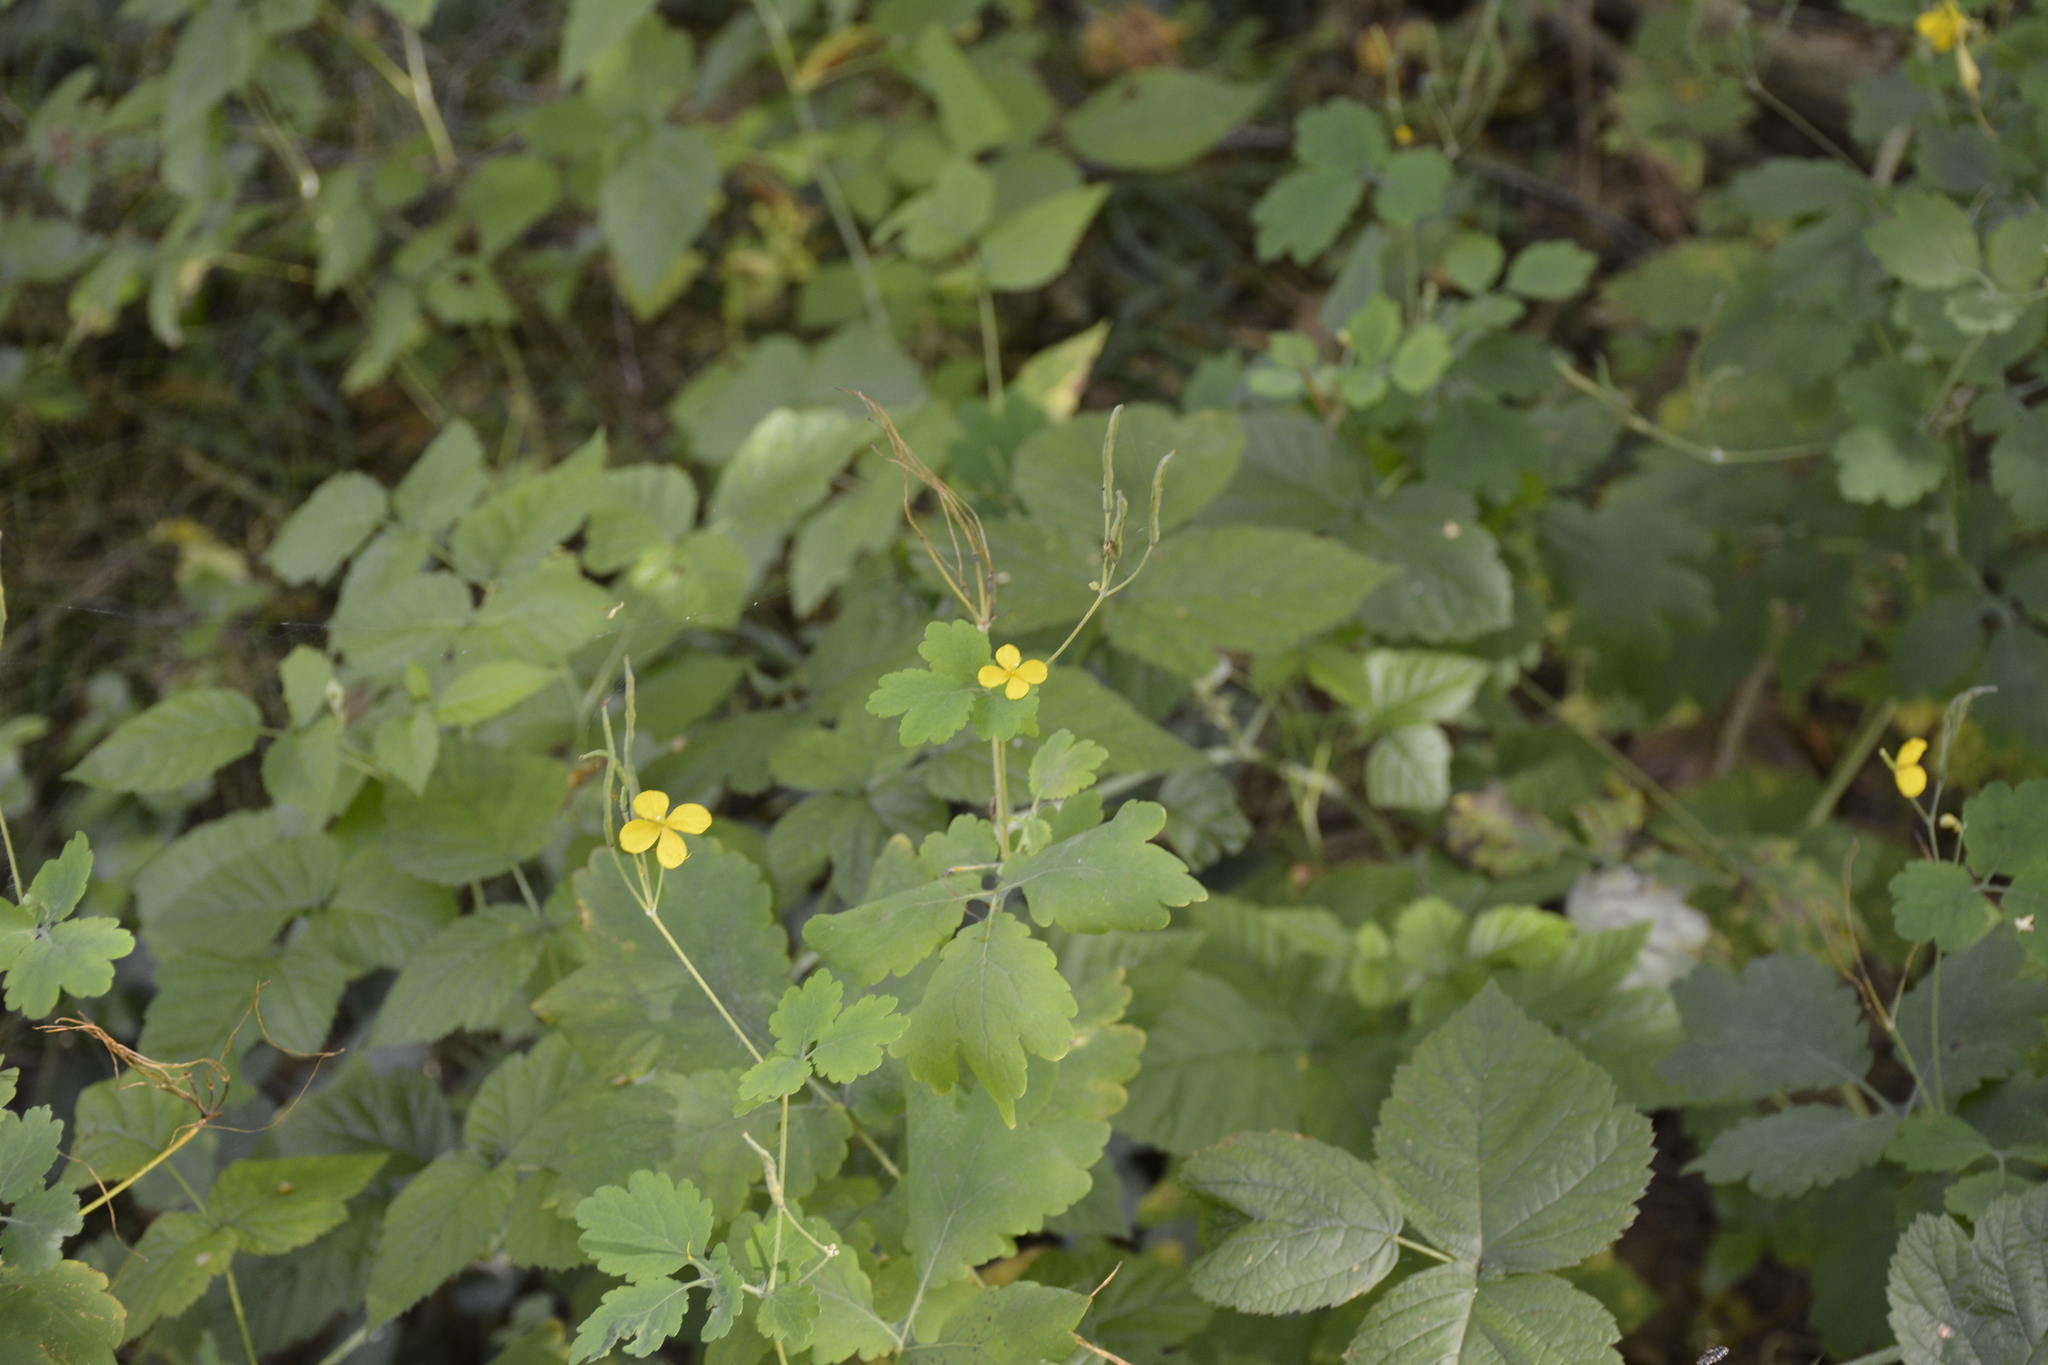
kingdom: Plantae
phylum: Tracheophyta
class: Magnoliopsida
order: Ranunculales
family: Papaveraceae
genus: Chelidonium
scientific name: Chelidonium majus
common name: Greater celandine
